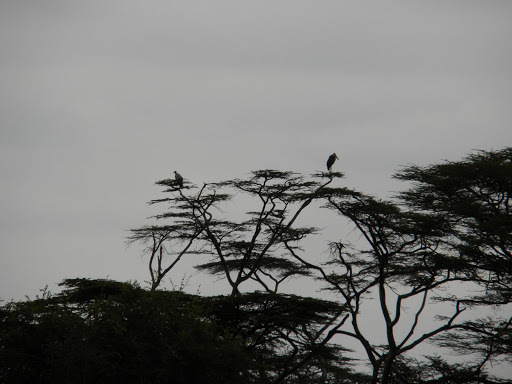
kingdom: Animalia
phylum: Chordata
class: Aves
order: Ciconiiformes
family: Ciconiidae
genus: Leptoptilos
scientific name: Leptoptilos crumenifer
